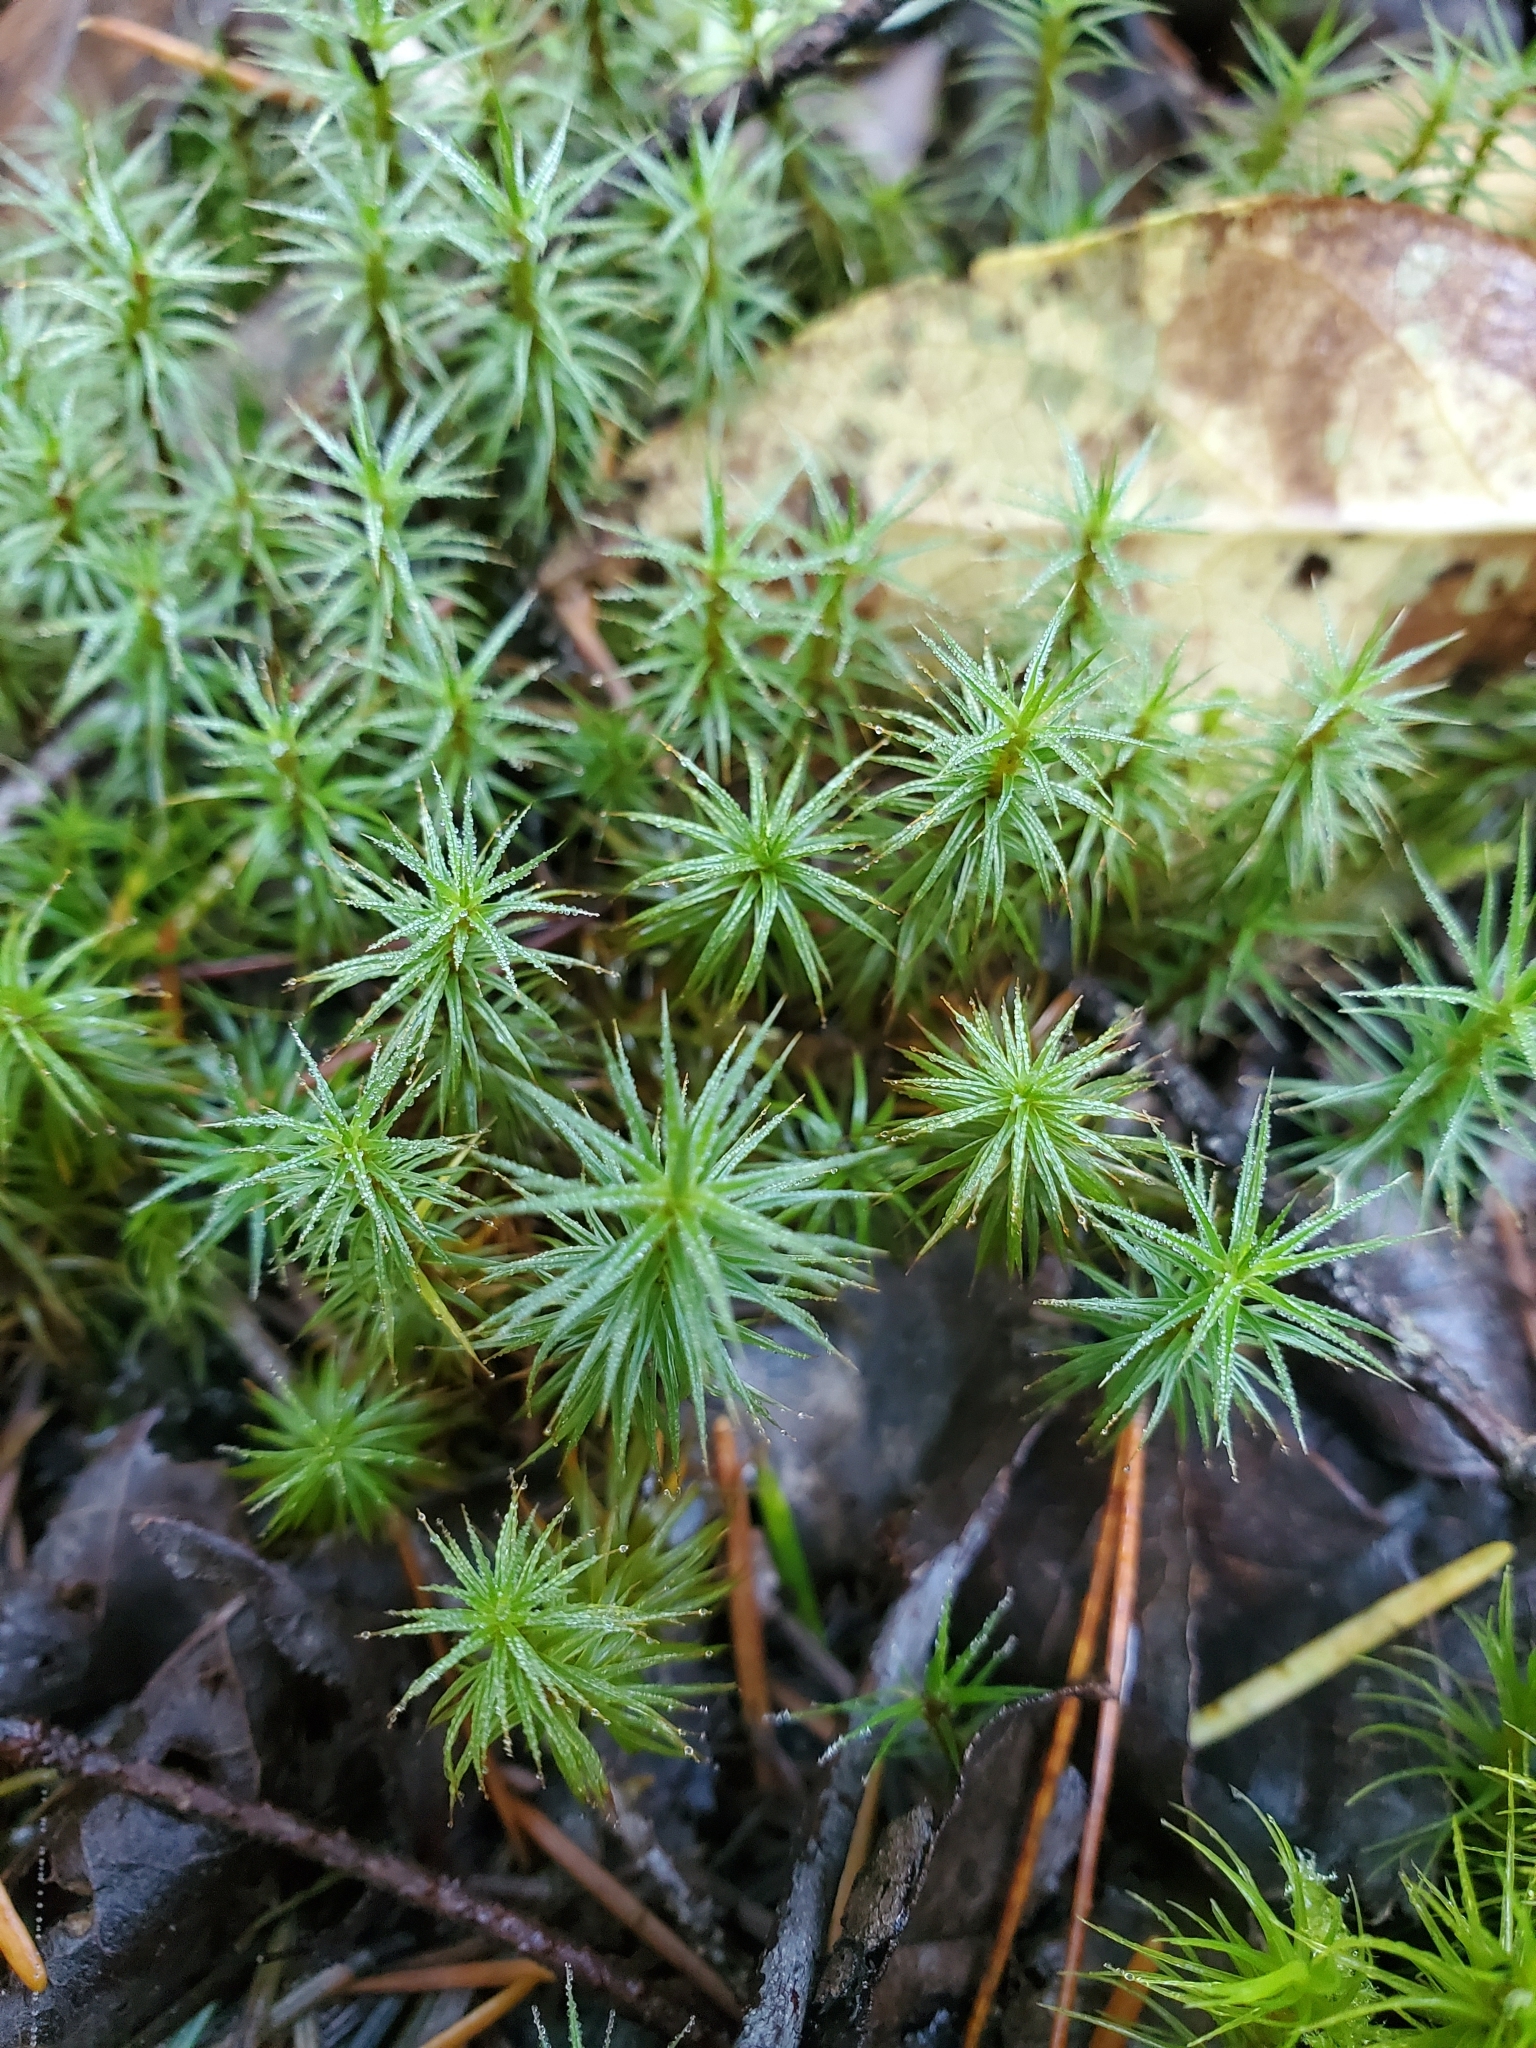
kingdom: Plantae
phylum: Bryophyta
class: Polytrichopsida
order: Polytrichales
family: Polytrichaceae
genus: Polytrichum
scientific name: Polytrichum juniperinum
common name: Juniper haircap moss
